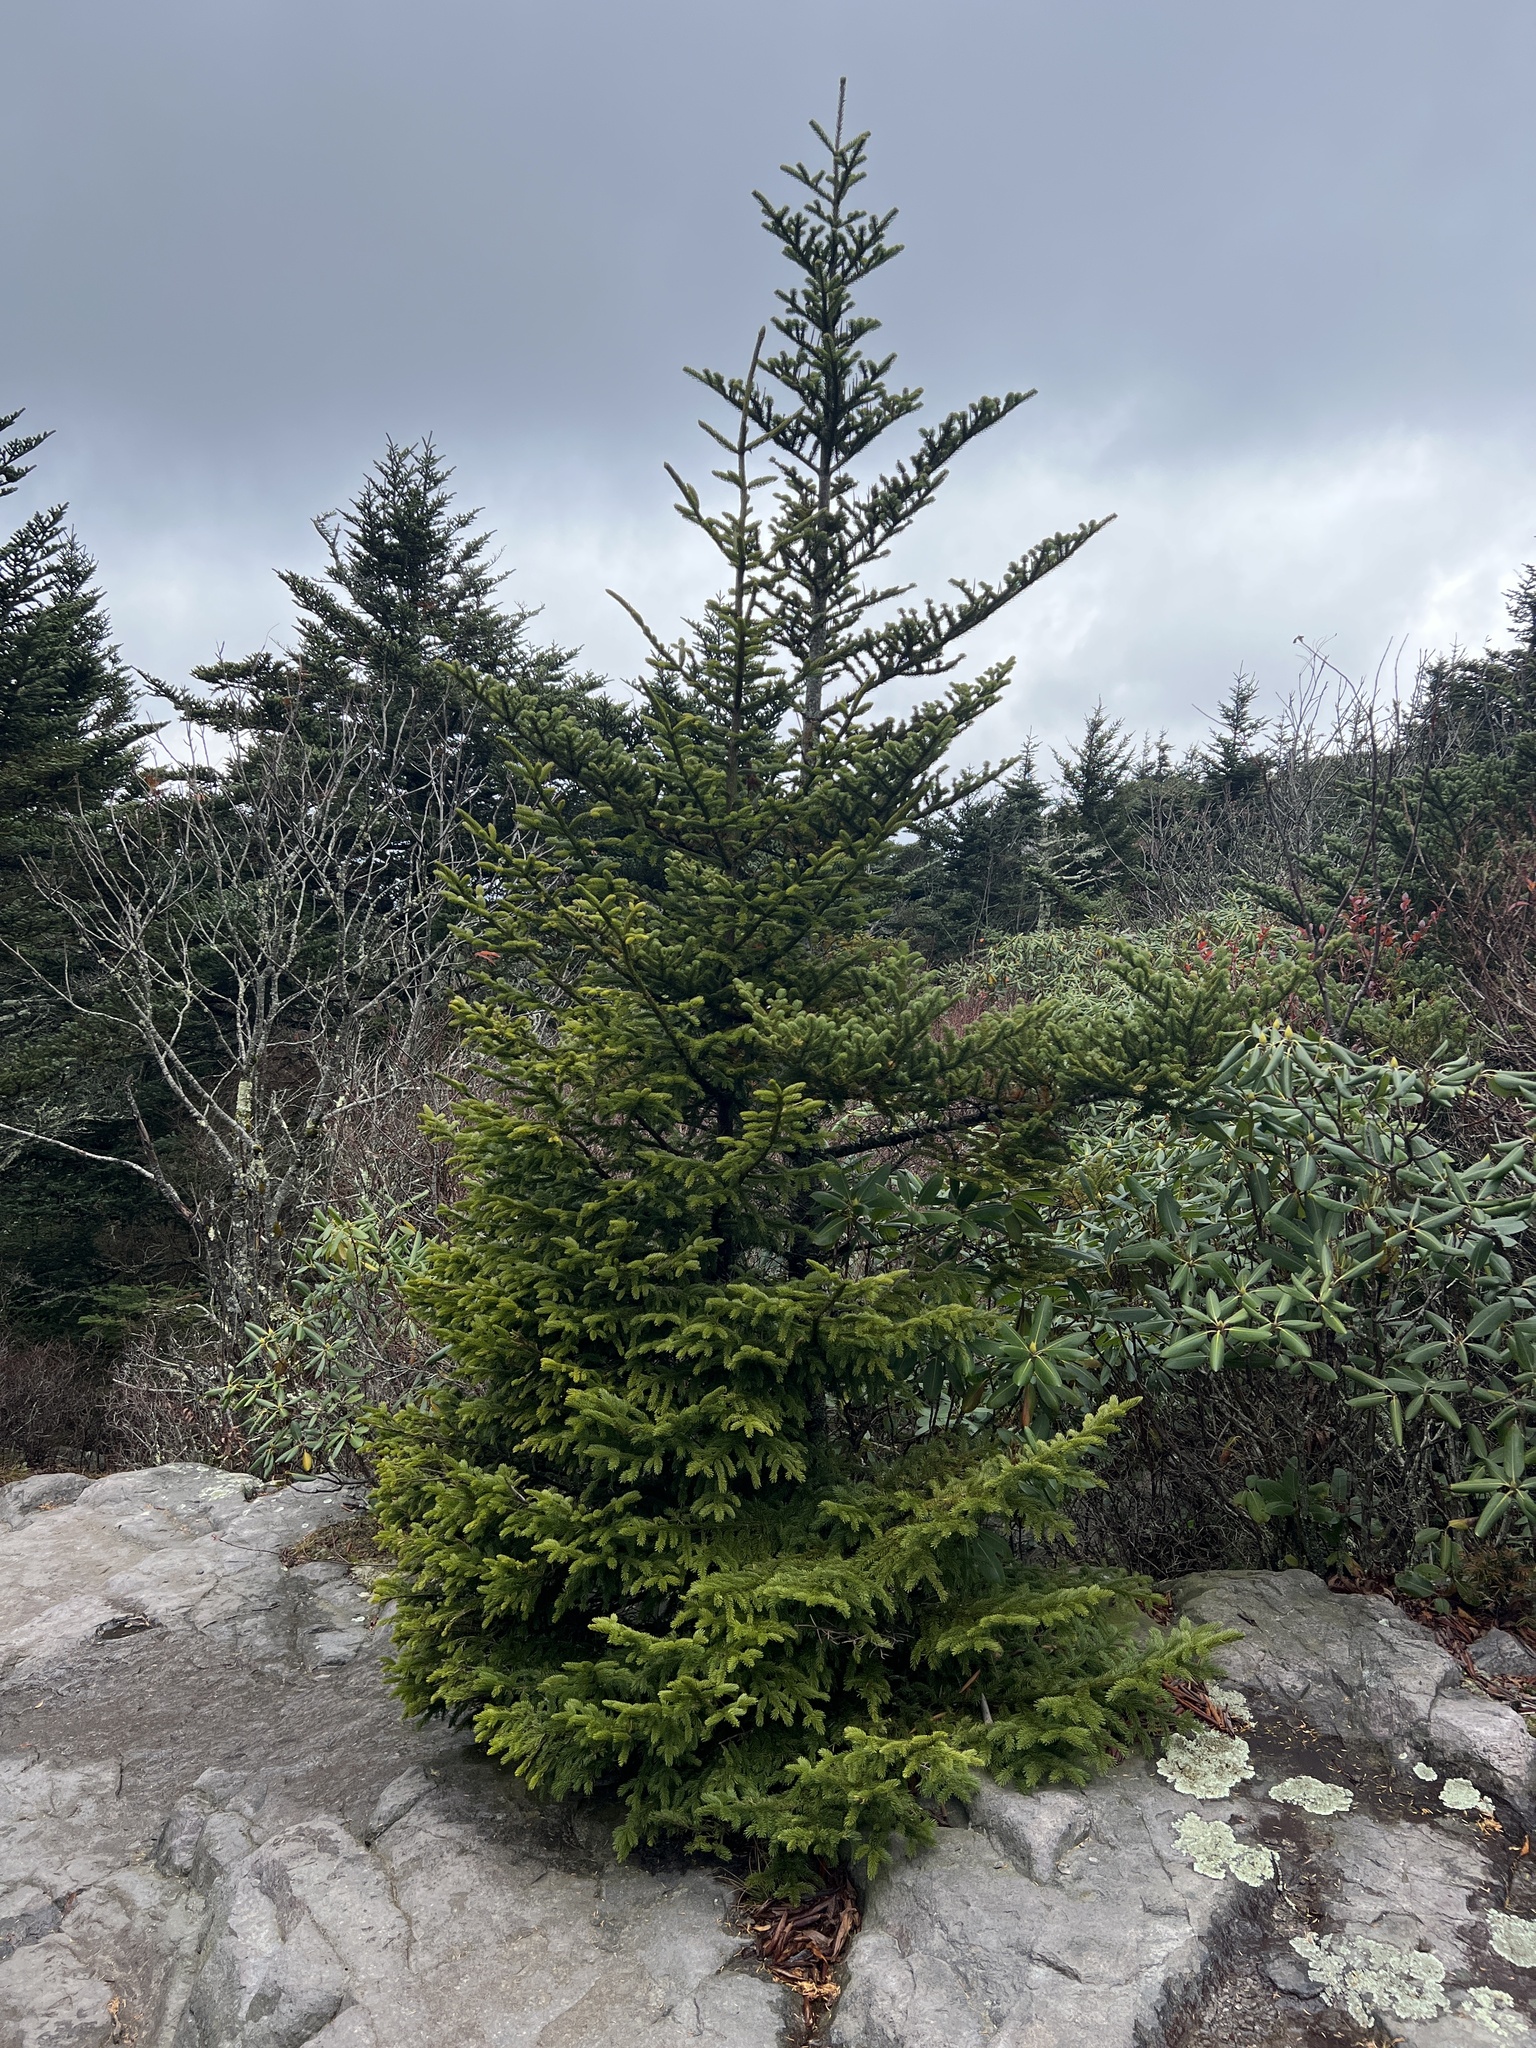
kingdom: Plantae
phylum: Tracheophyta
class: Pinopsida
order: Pinales
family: Pinaceae
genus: Abies
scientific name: Abies fraseri
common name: Fraser fir
